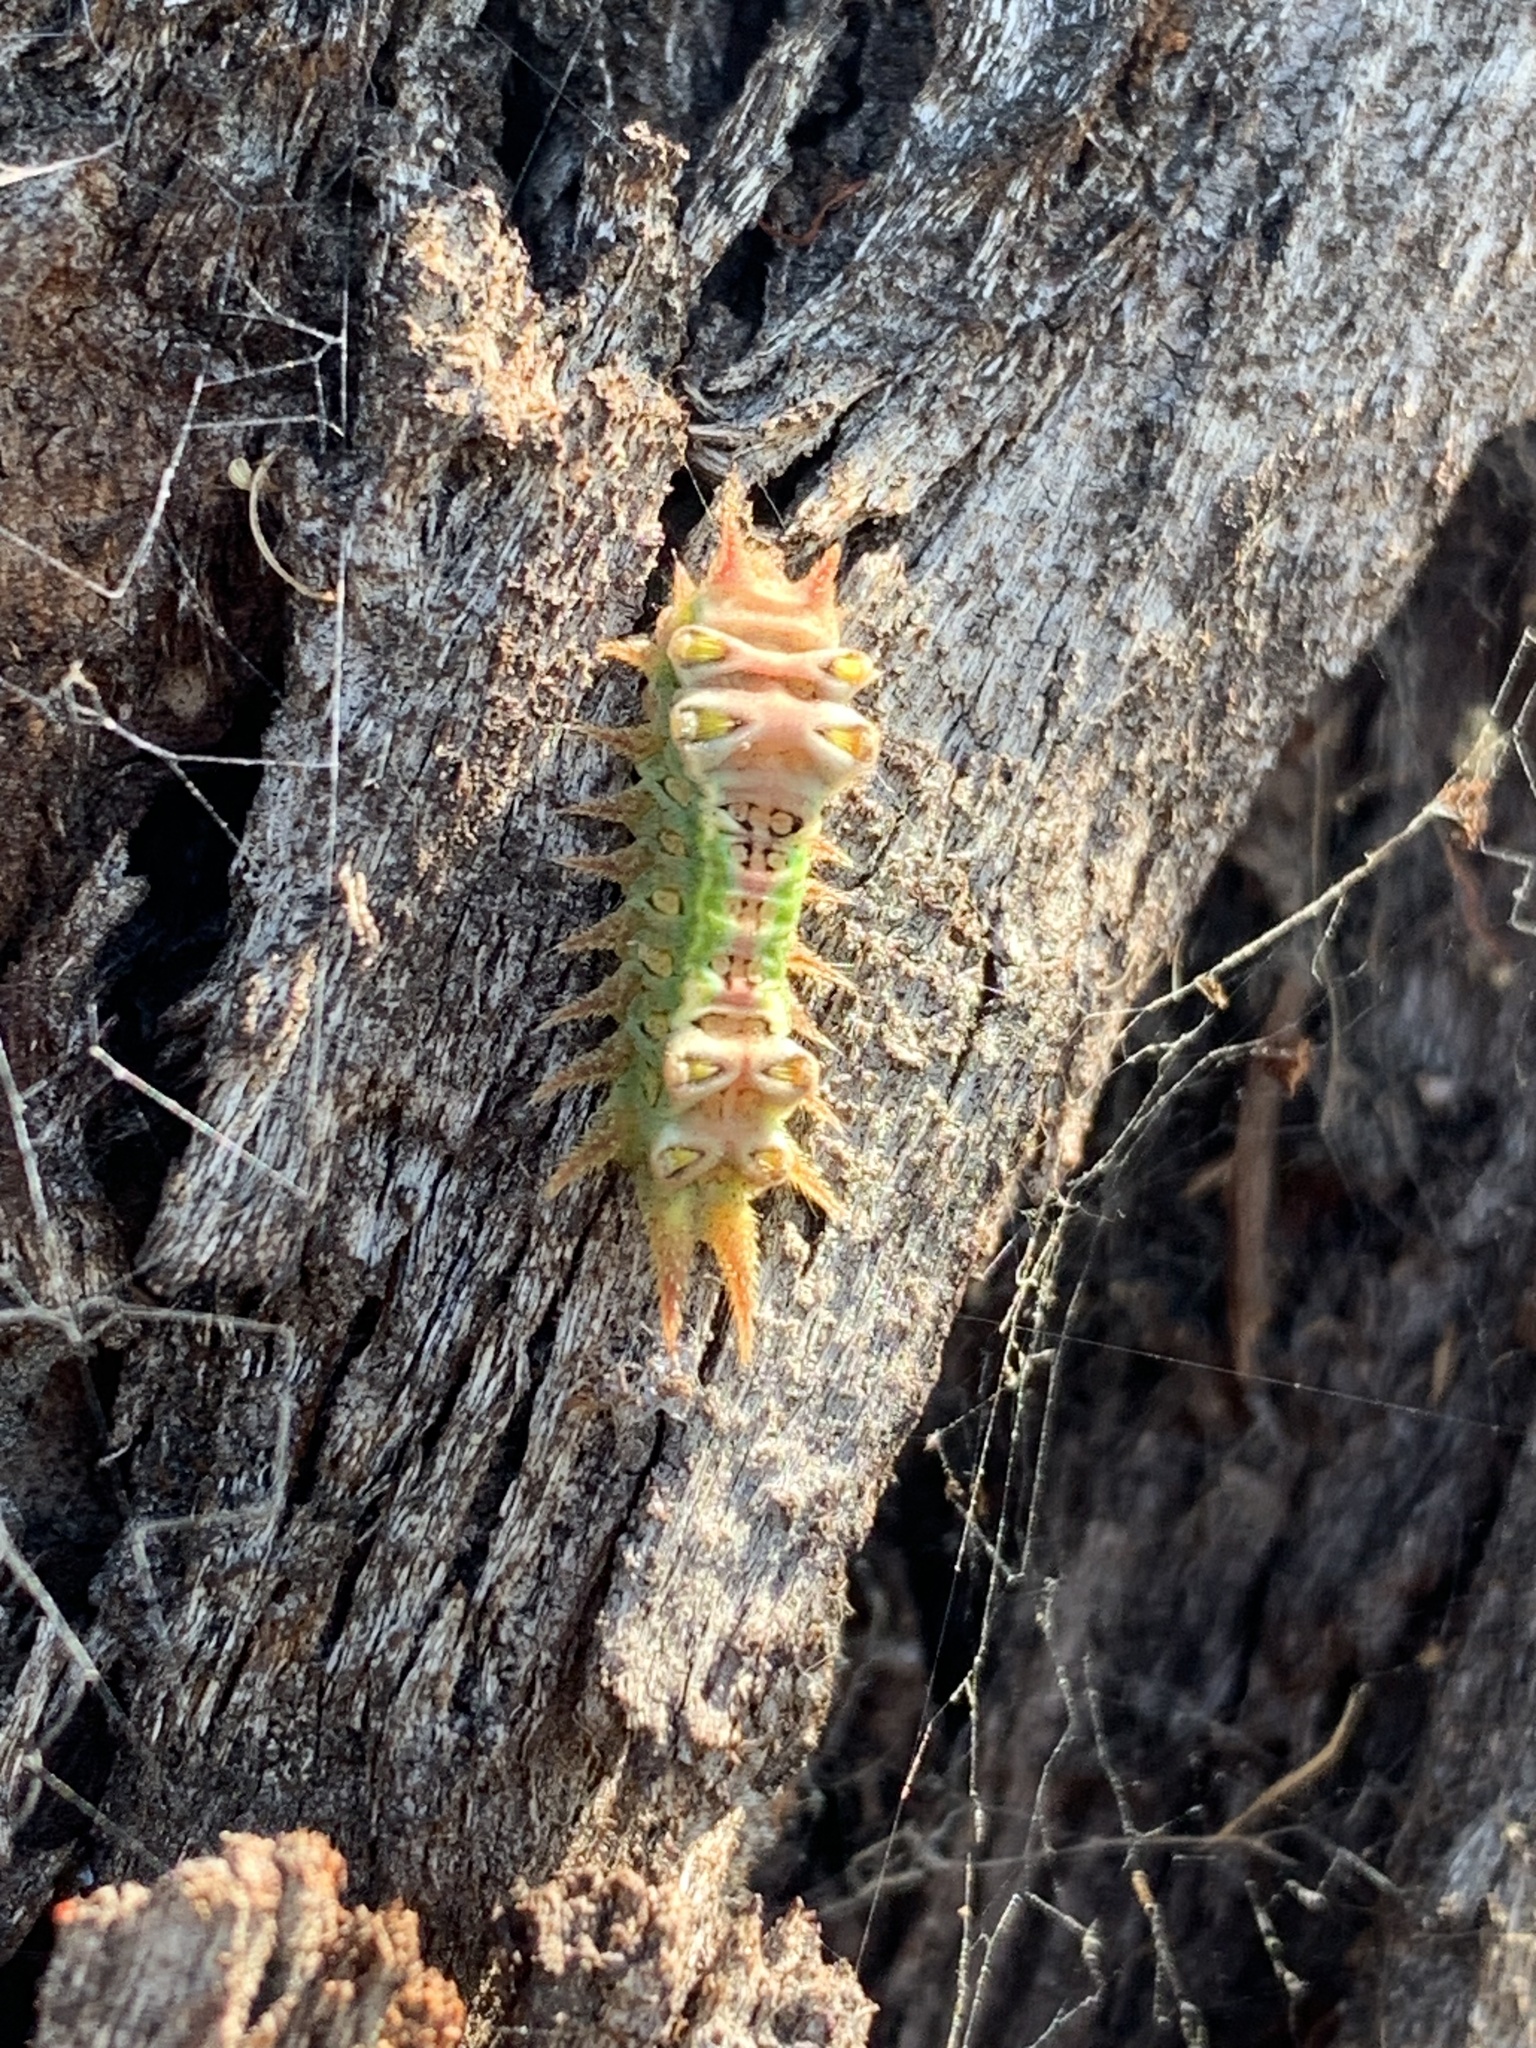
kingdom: Animalia
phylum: Arthropoda
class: Insecta
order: Lepidoptera
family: Limacodidae
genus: Doratifera
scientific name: Doratifera oxleyi
